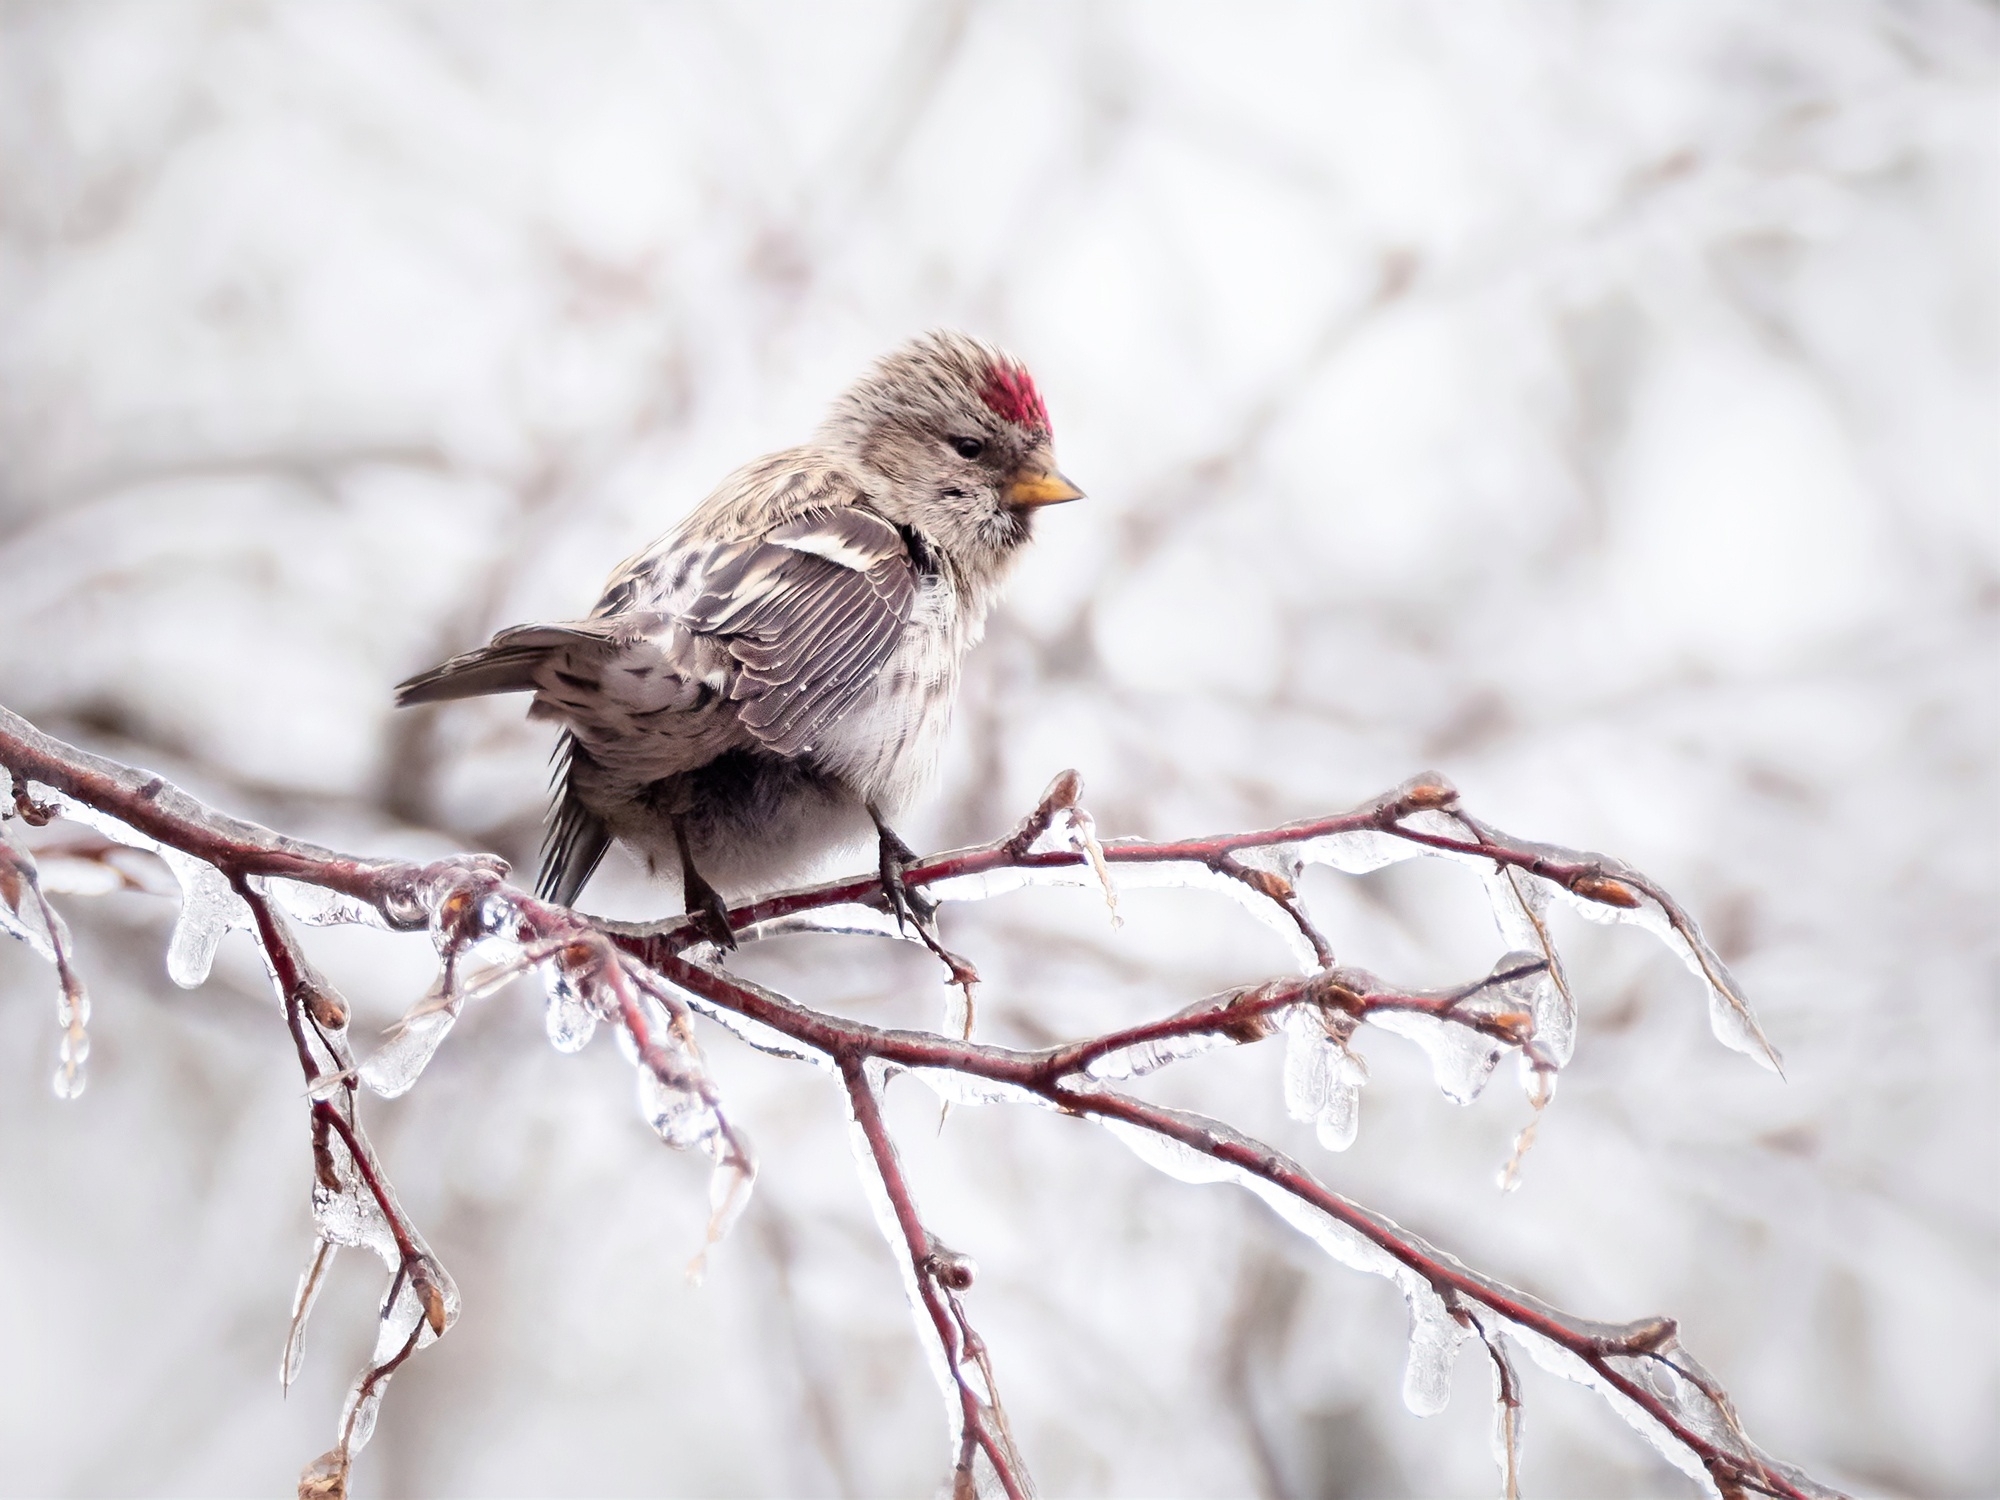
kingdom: Animalia
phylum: Chordata
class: Aves
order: Passeriformes
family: Fringillidae
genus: Acanthis
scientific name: Acanthis flammea
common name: Common redpoll
